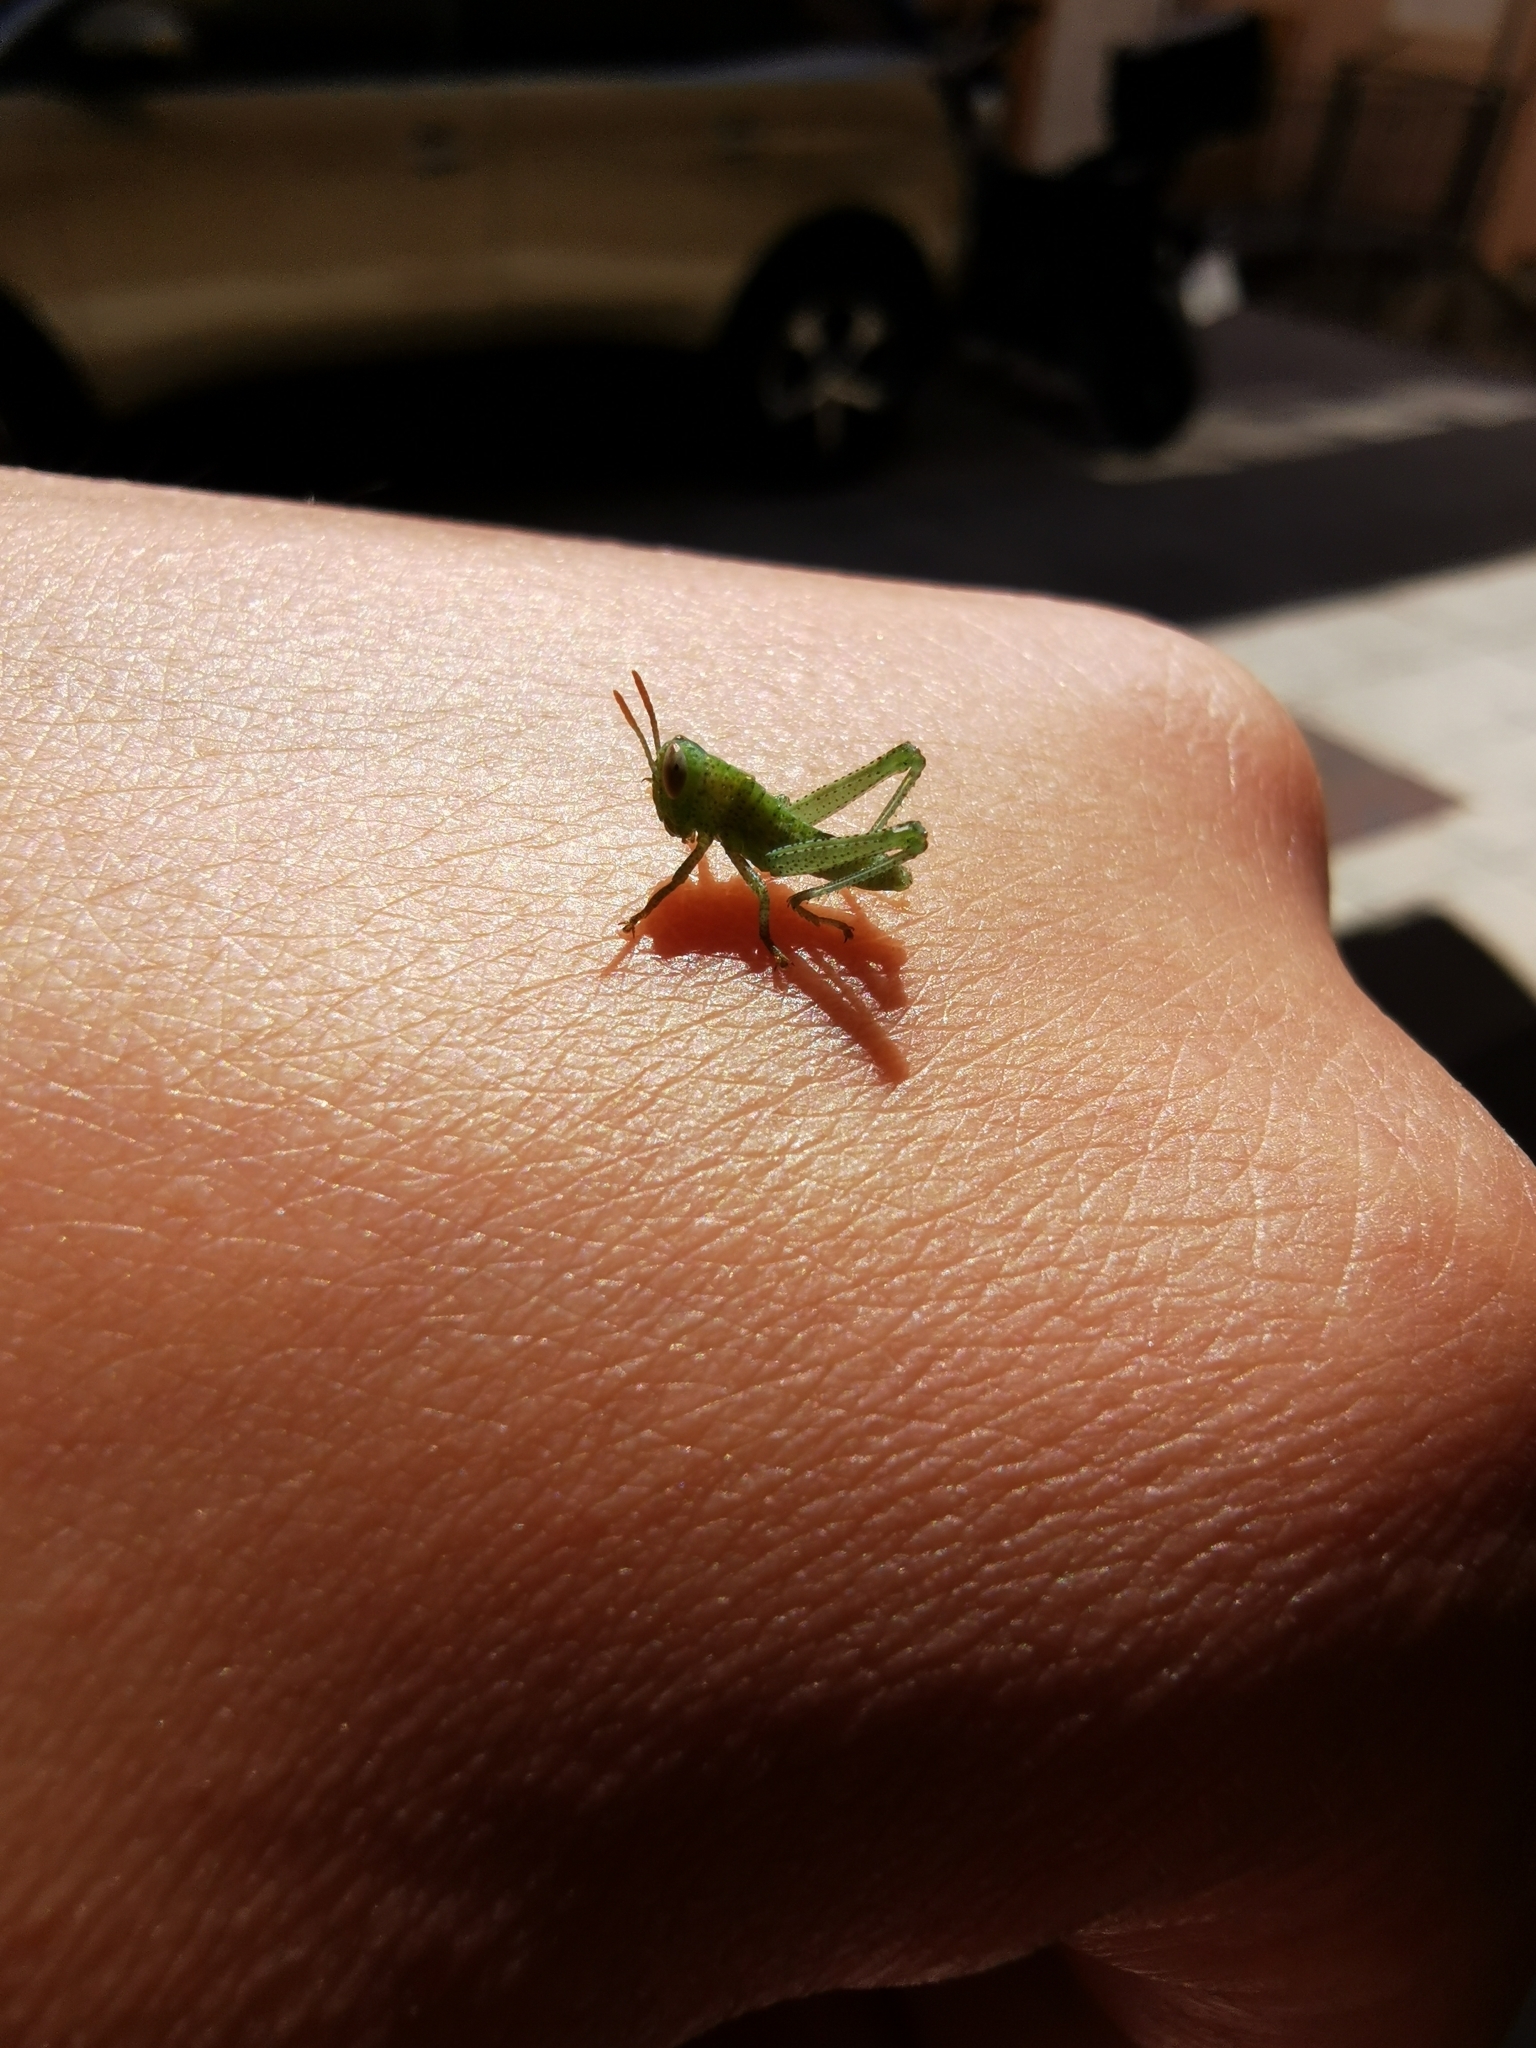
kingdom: Animalia
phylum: Arthropoda
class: Insecta
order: Orthoptera
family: Acrididae
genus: Anacridium
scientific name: Anacridium aegyptium
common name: Egyptian grasshopper
